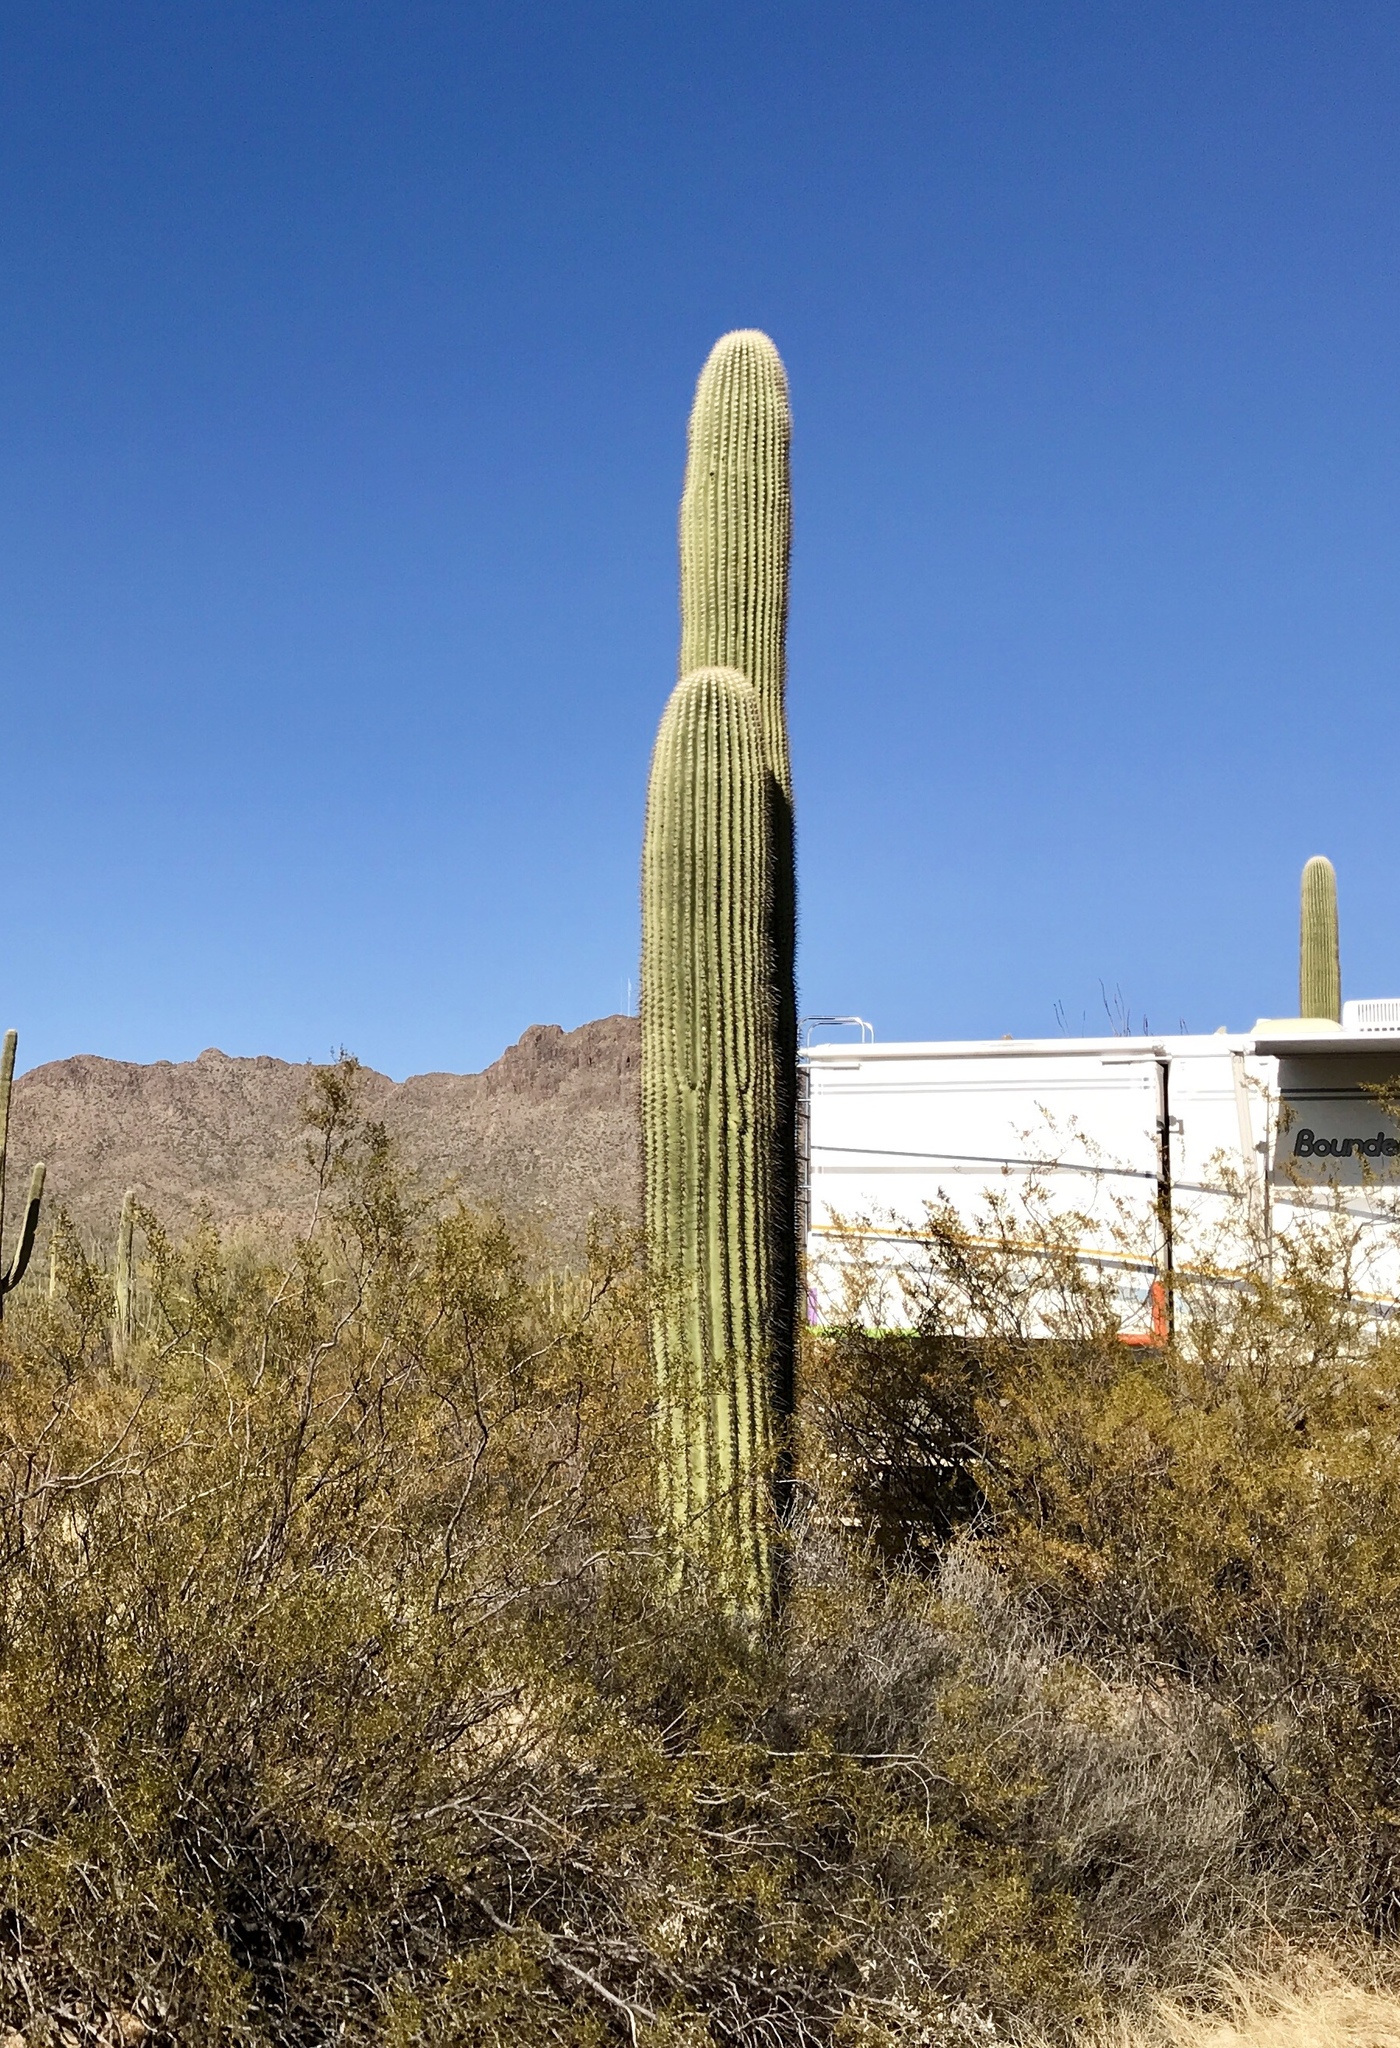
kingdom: Plantae
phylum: Tracheophyta
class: Magnoliopsida
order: Caryophyllales
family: Cactaceae
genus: Carnegiea
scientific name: Carnegiea gigantea
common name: Saguaro
